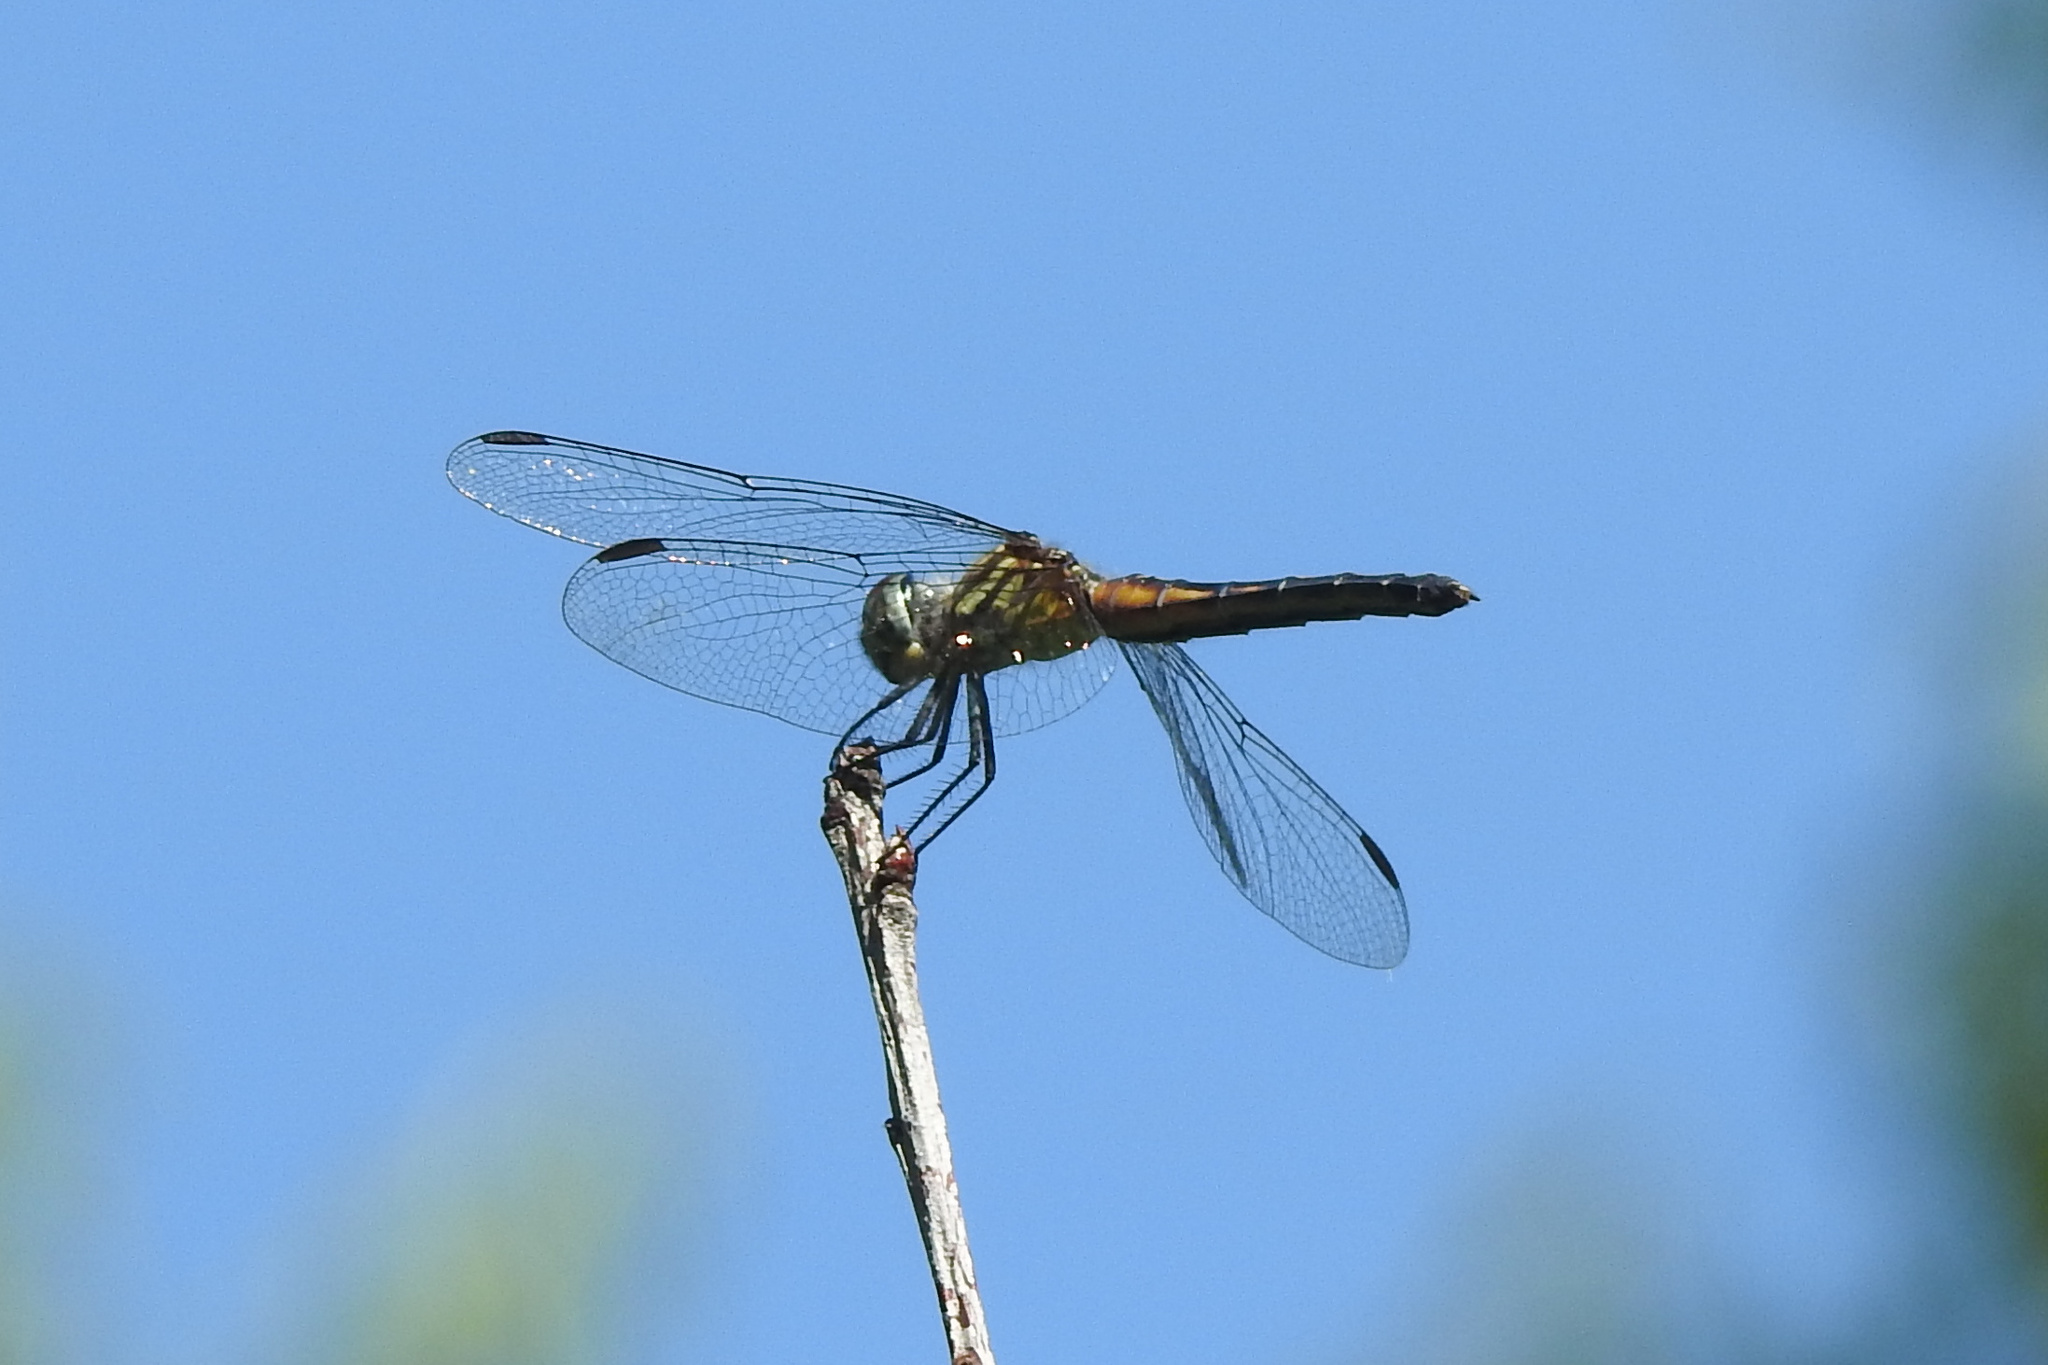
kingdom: Animalia
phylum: Arthropoda
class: Insecta
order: Odonata
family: Libellulidae
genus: Pachydiplax
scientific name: Pachydiplax longipennis
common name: Blue dasher
